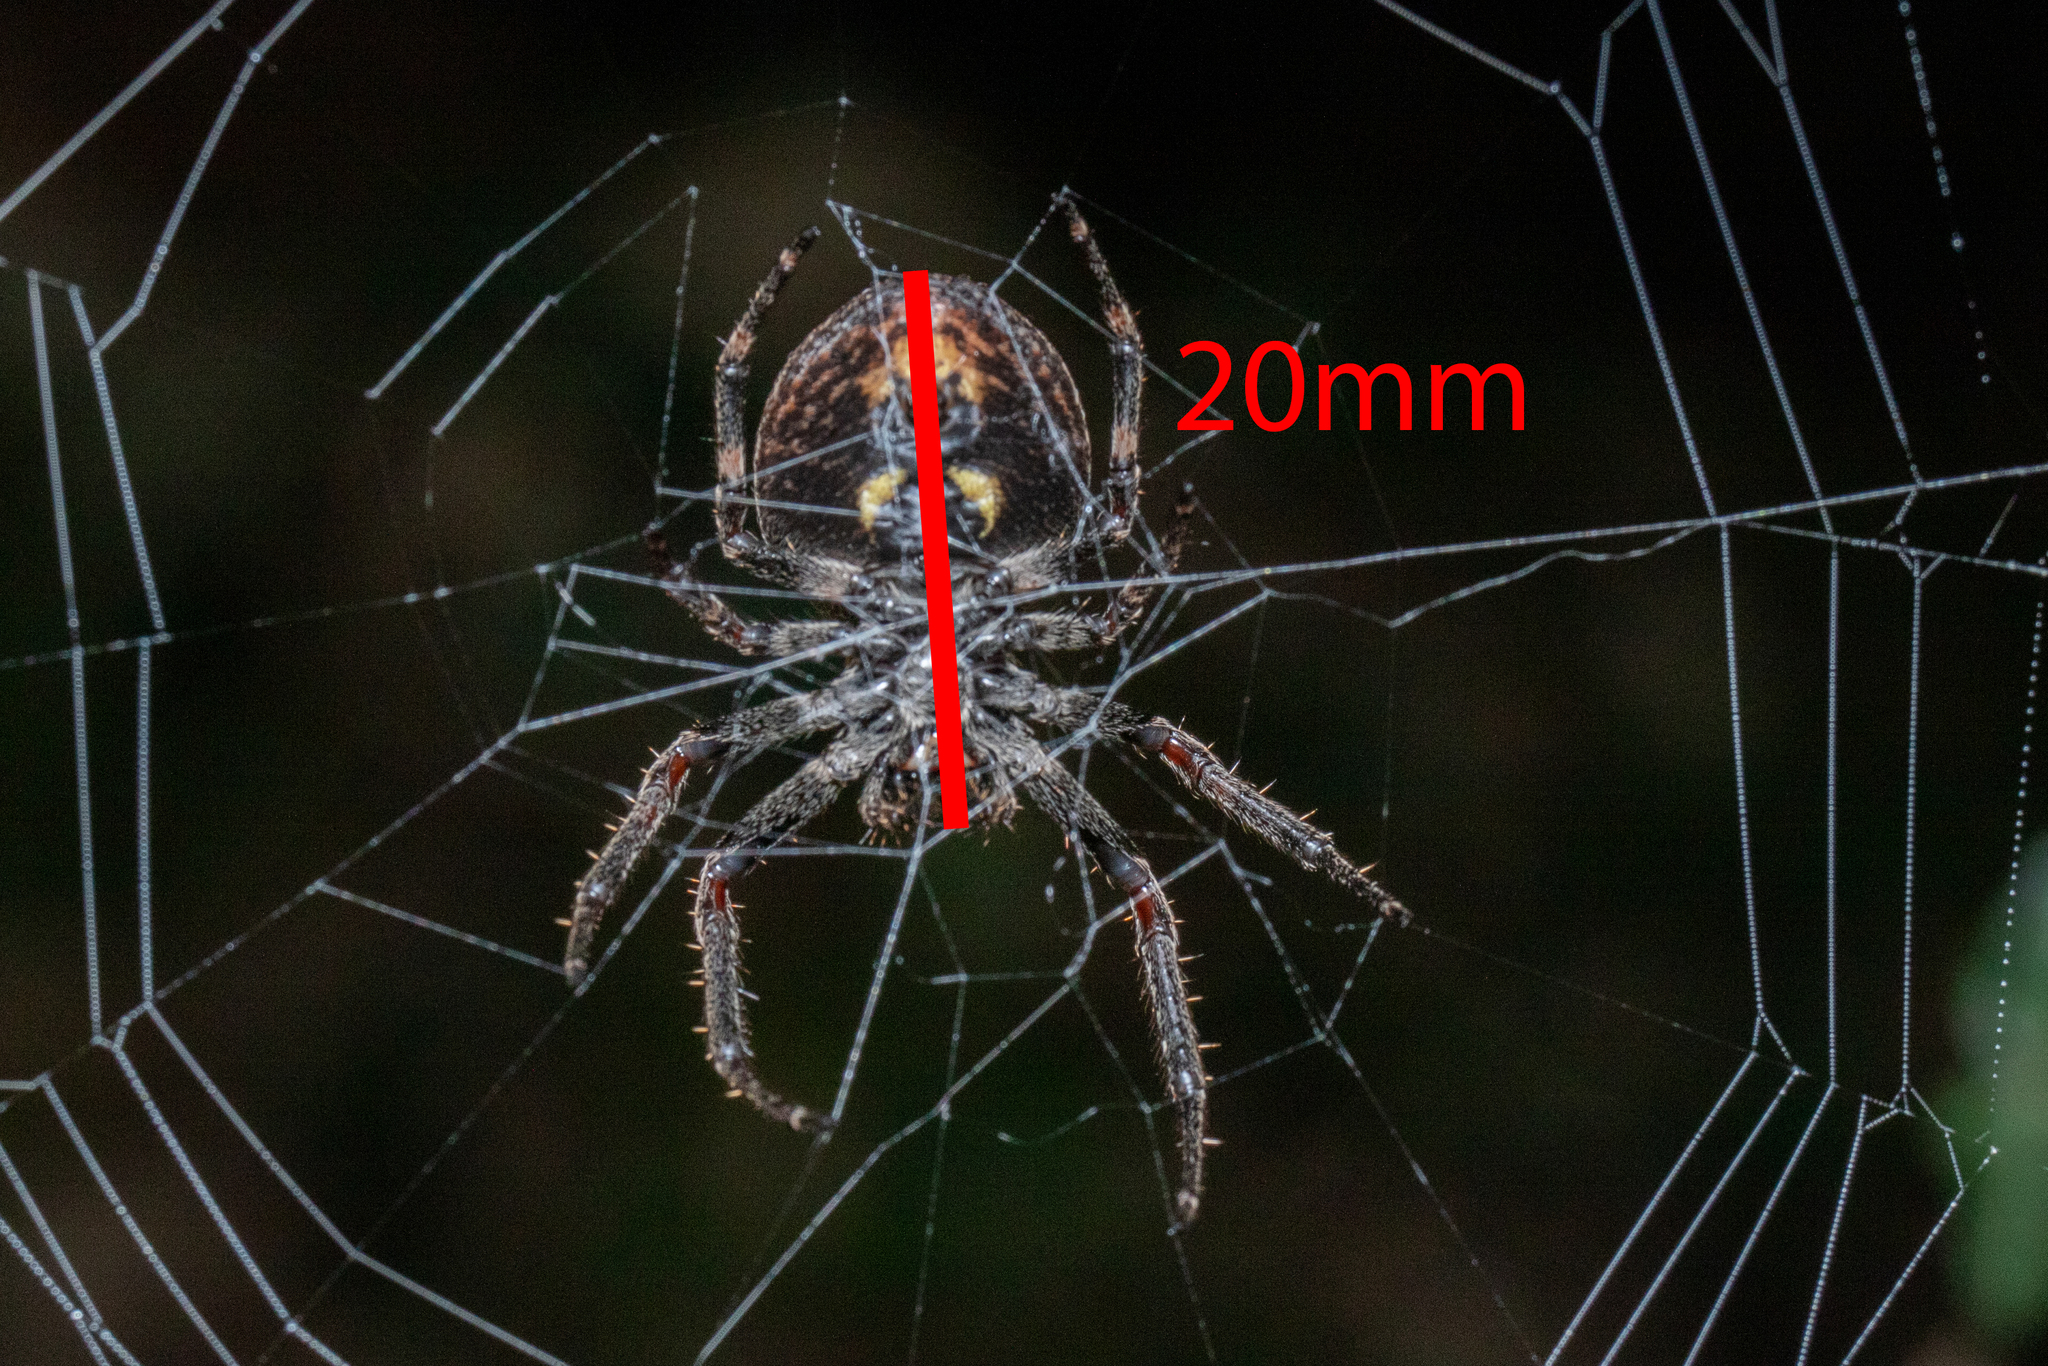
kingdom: Animalia
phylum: Arthropoda
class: Arachnida
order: Araneae
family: Araneidae
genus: Nuctenea
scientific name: Nuctenea umbratica
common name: Toad spider
